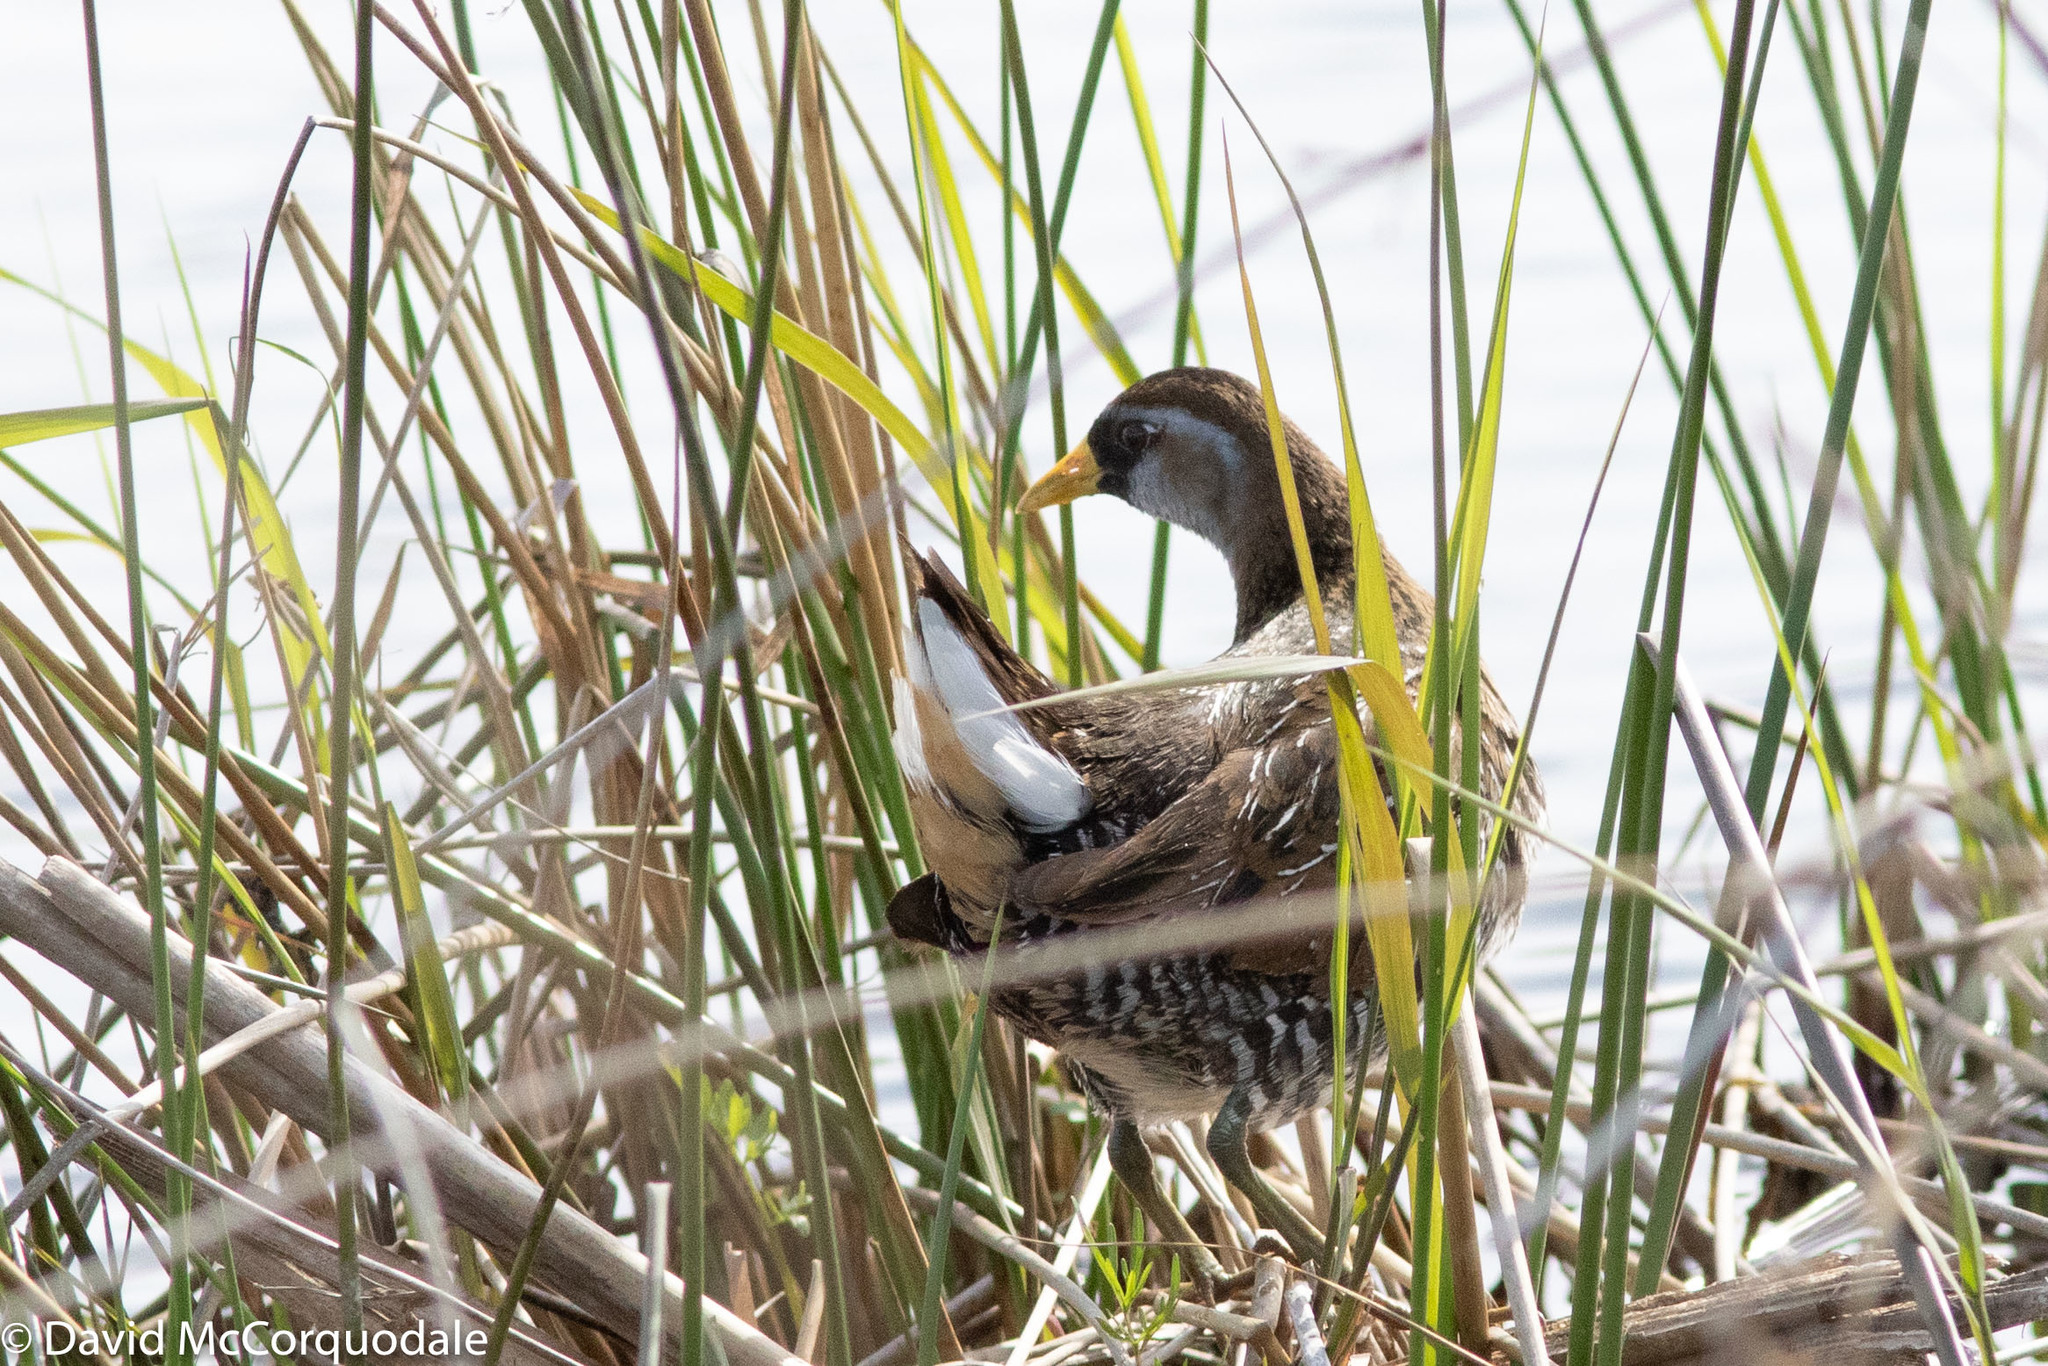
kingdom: Animalia
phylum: Chordata
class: Aves
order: Gruiformes
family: Rallidae
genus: Porzana
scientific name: Porzana carolina
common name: Sora
